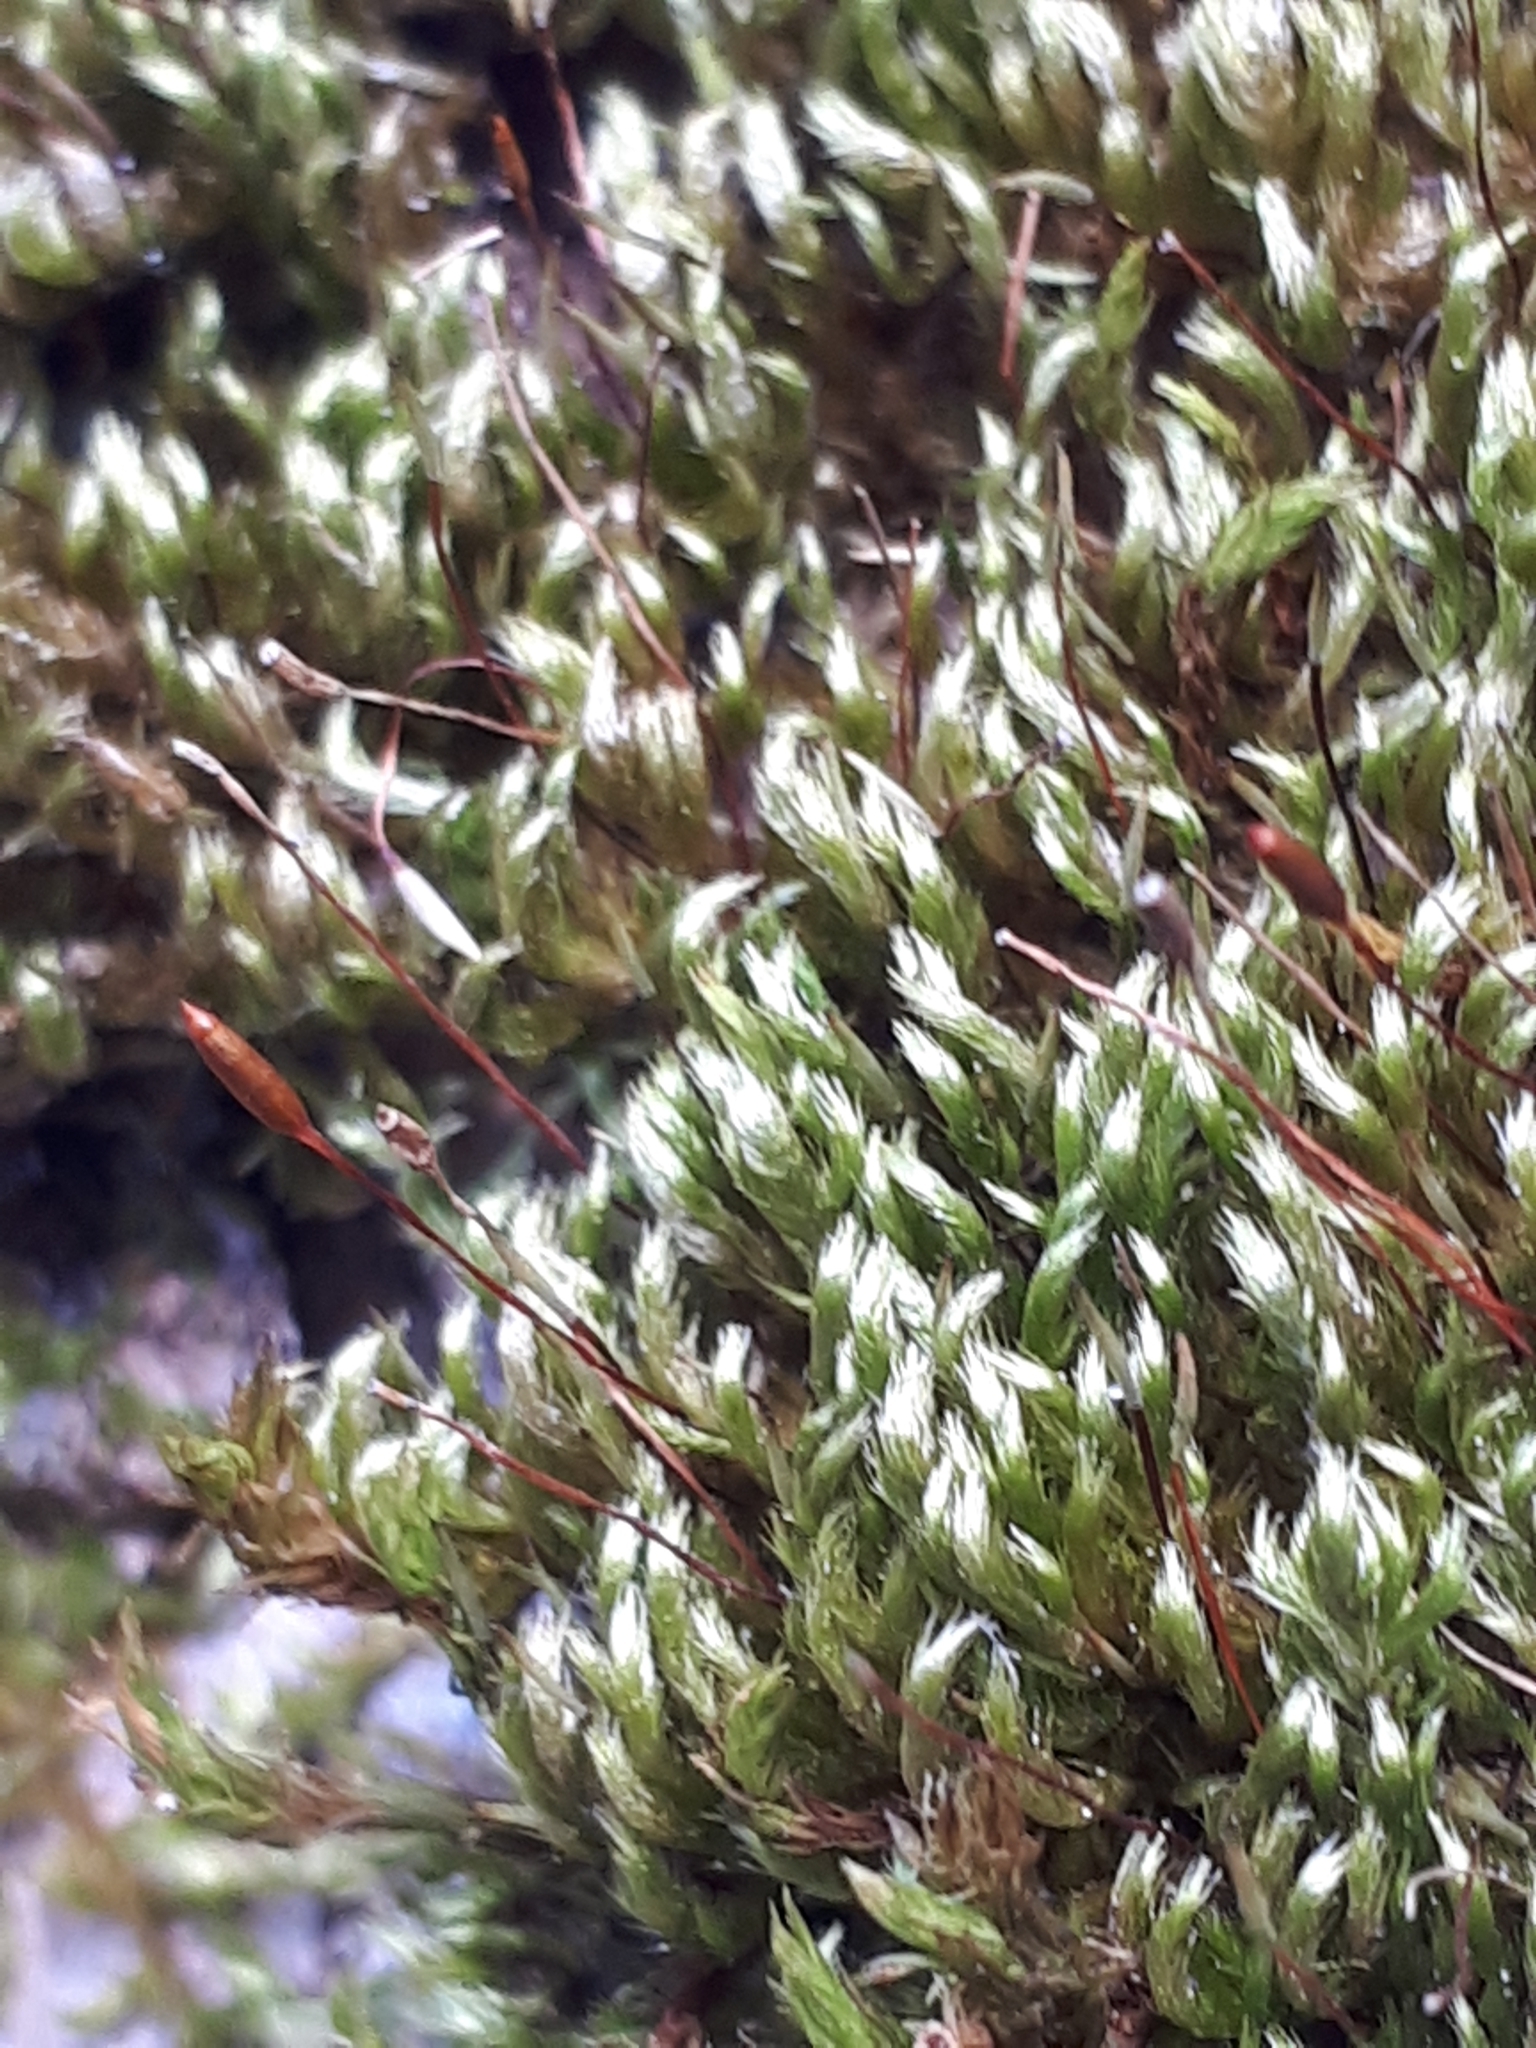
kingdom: Plantae
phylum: Bryophyta
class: Bryopsida
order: Hypnales
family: Pylaisiaceae
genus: Pylaisia
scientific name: Pylaisia polyantha
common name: Many-flowered leskea
